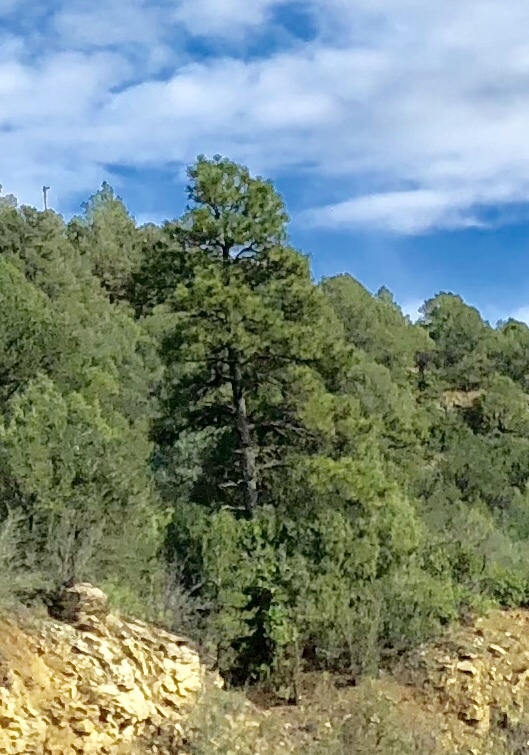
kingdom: Plantae
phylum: Tracheophyta
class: Pinopsida
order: Pinales
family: Pinaceae
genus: Pinus
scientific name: Pinus ponderosa
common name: Western yellow-pine
